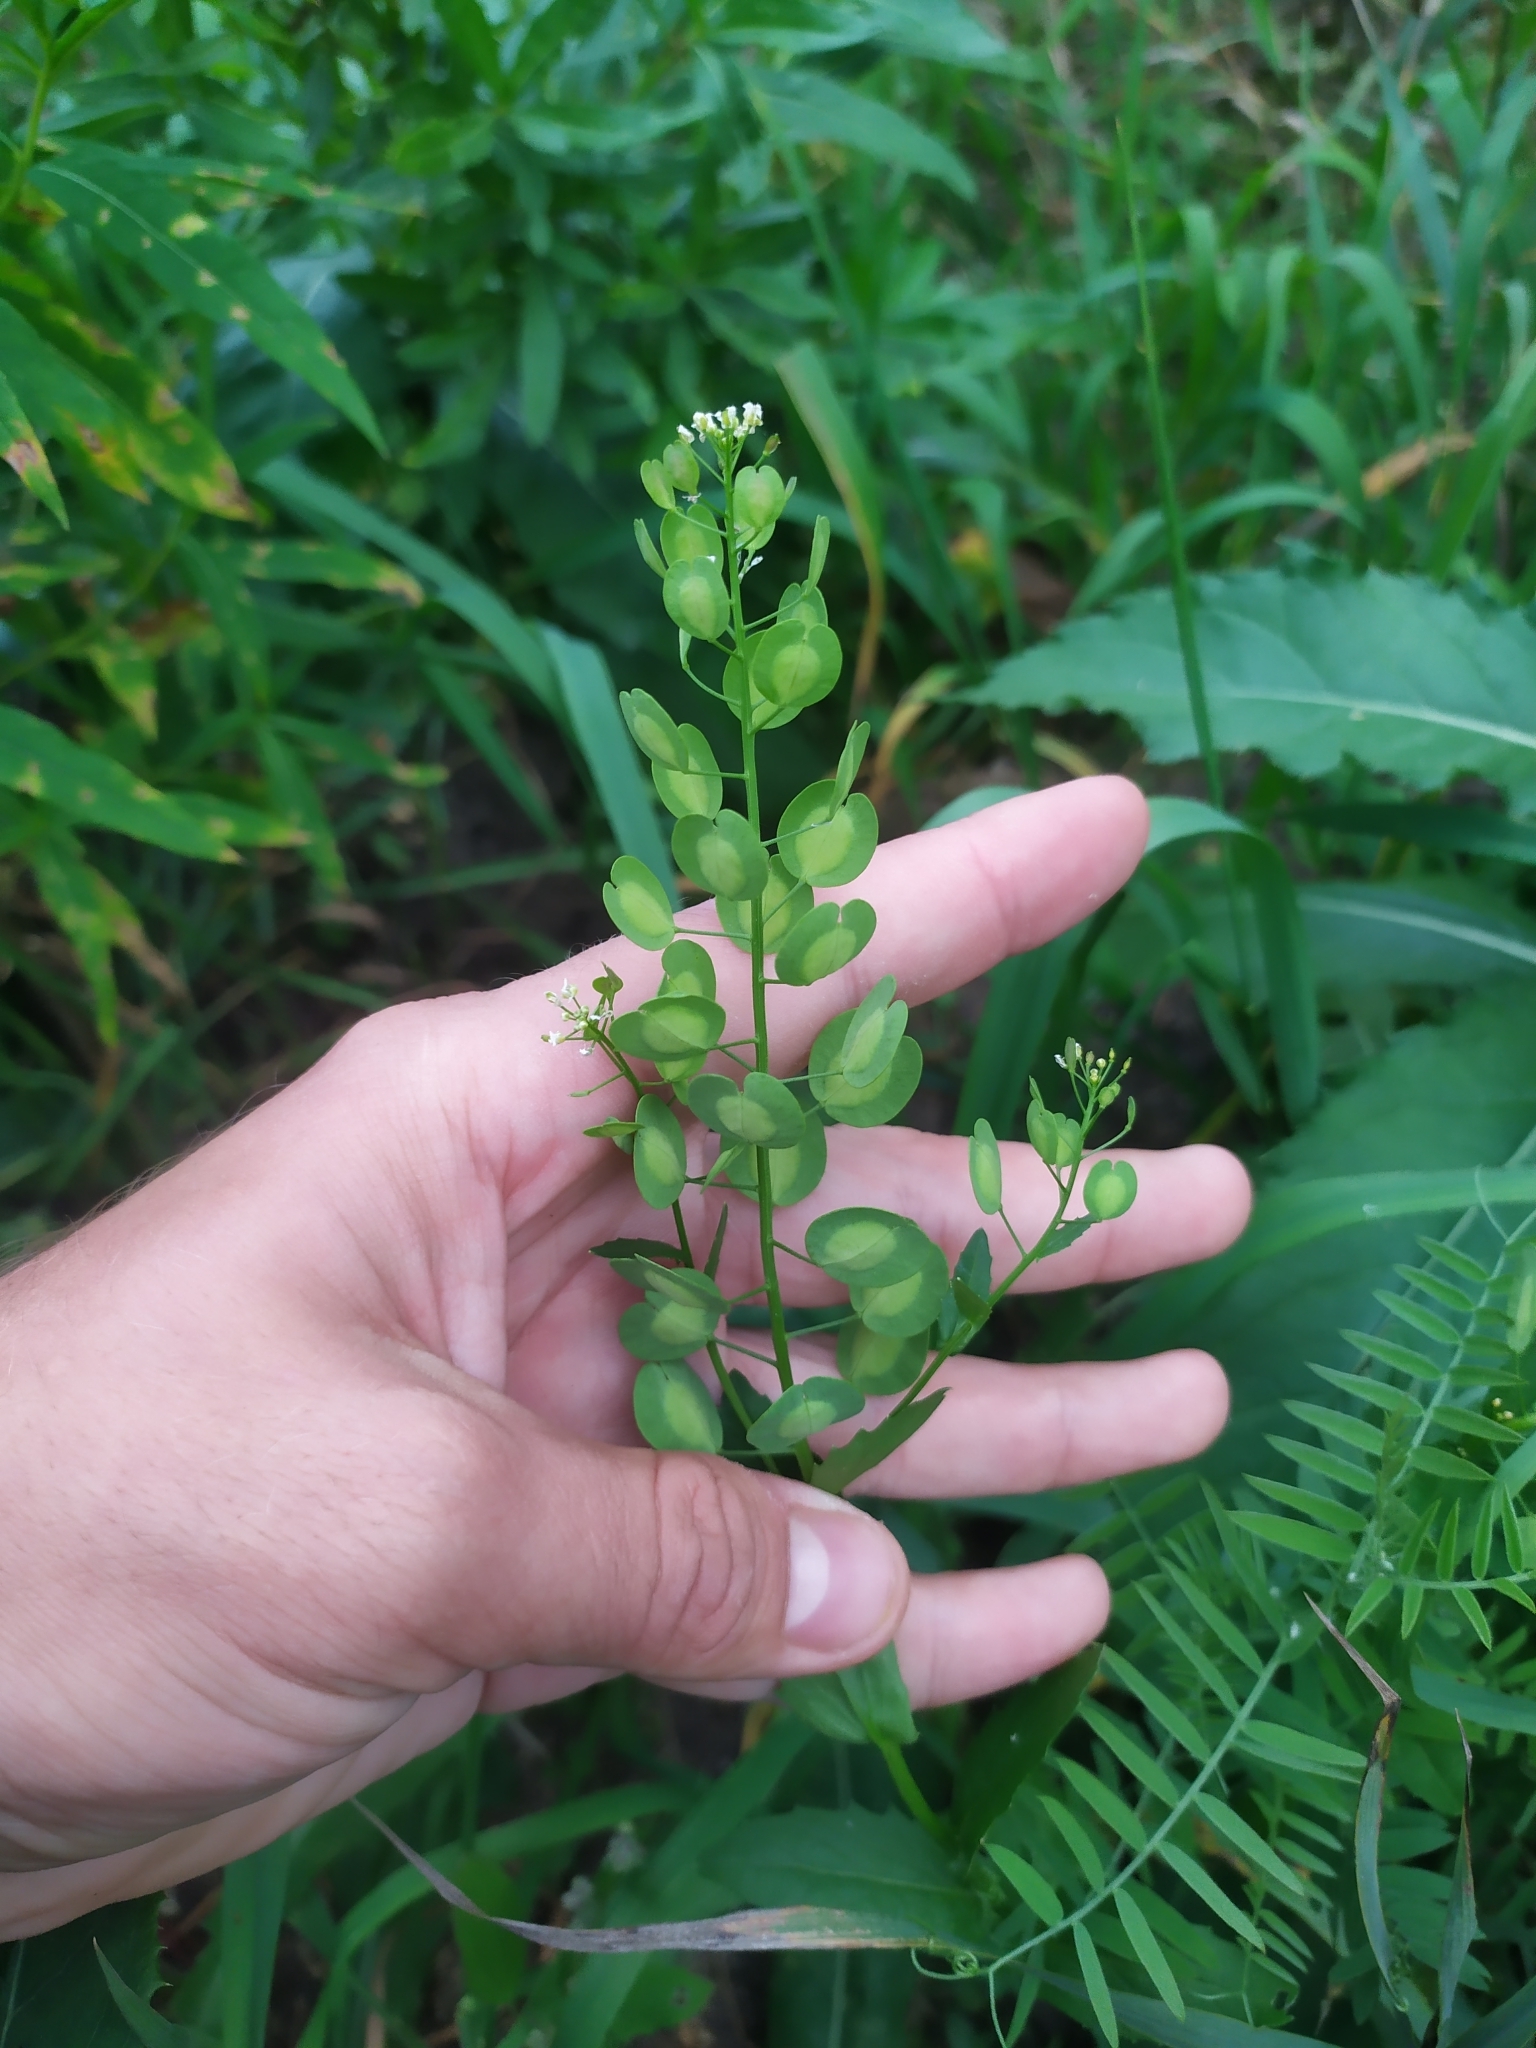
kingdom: Plantae
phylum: Tracheophyta
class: Magnoliopsida
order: Brassicales
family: Brassicaceae
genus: Thlaspi
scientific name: Thlaspi arvense
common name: Field pennycress
